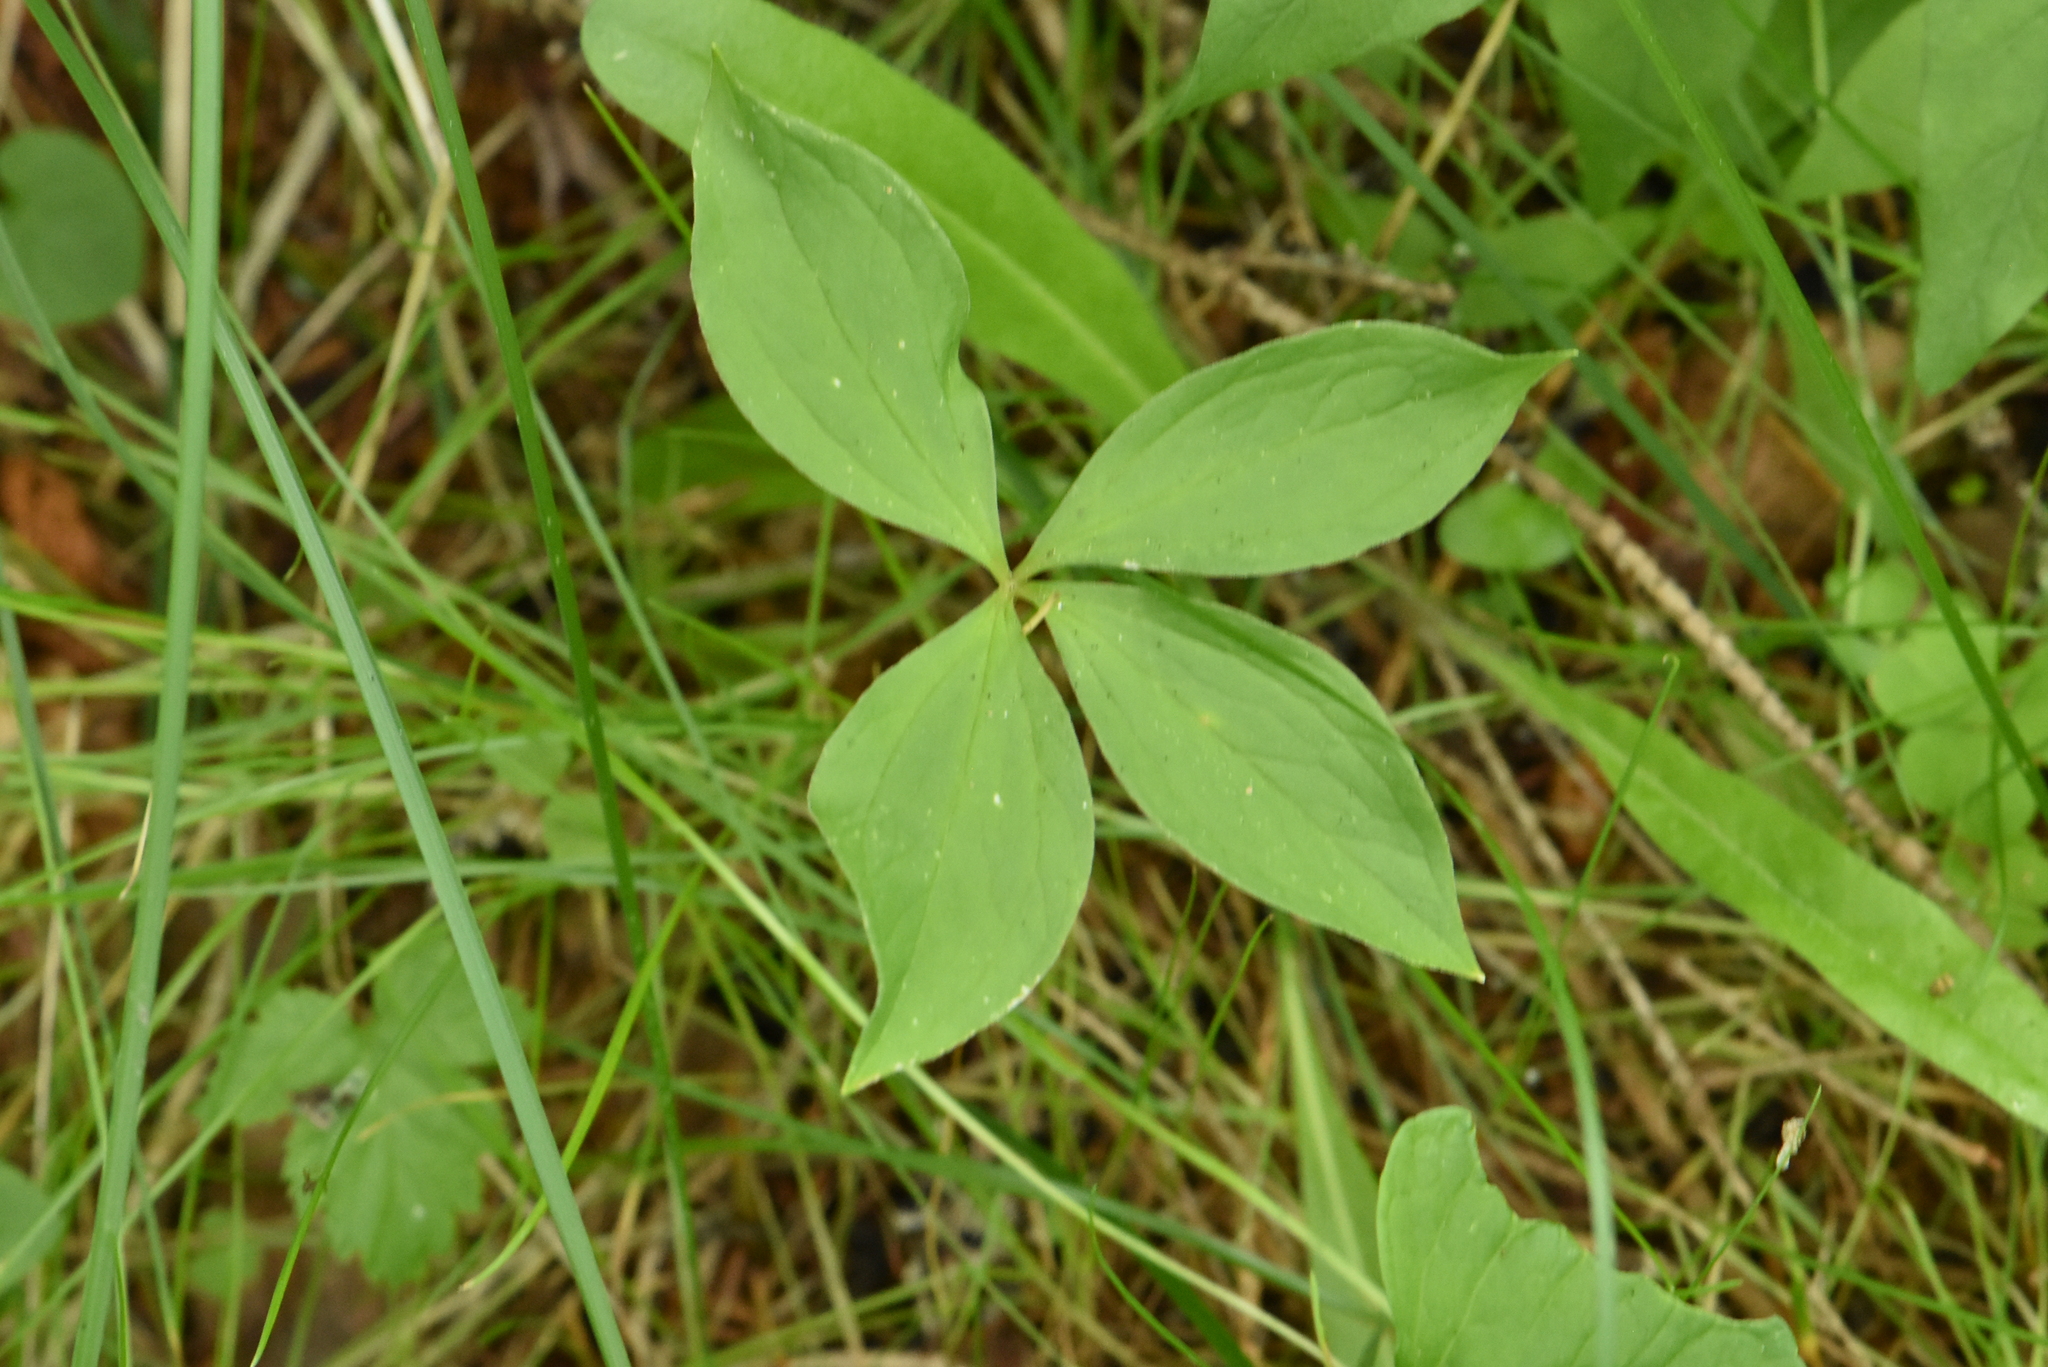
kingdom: Plantae
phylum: Tracheophyta
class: Liliopsida
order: Liliales
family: Melanthiaceae
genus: Paris
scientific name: Paris quadrifolia
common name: Herb-paris
